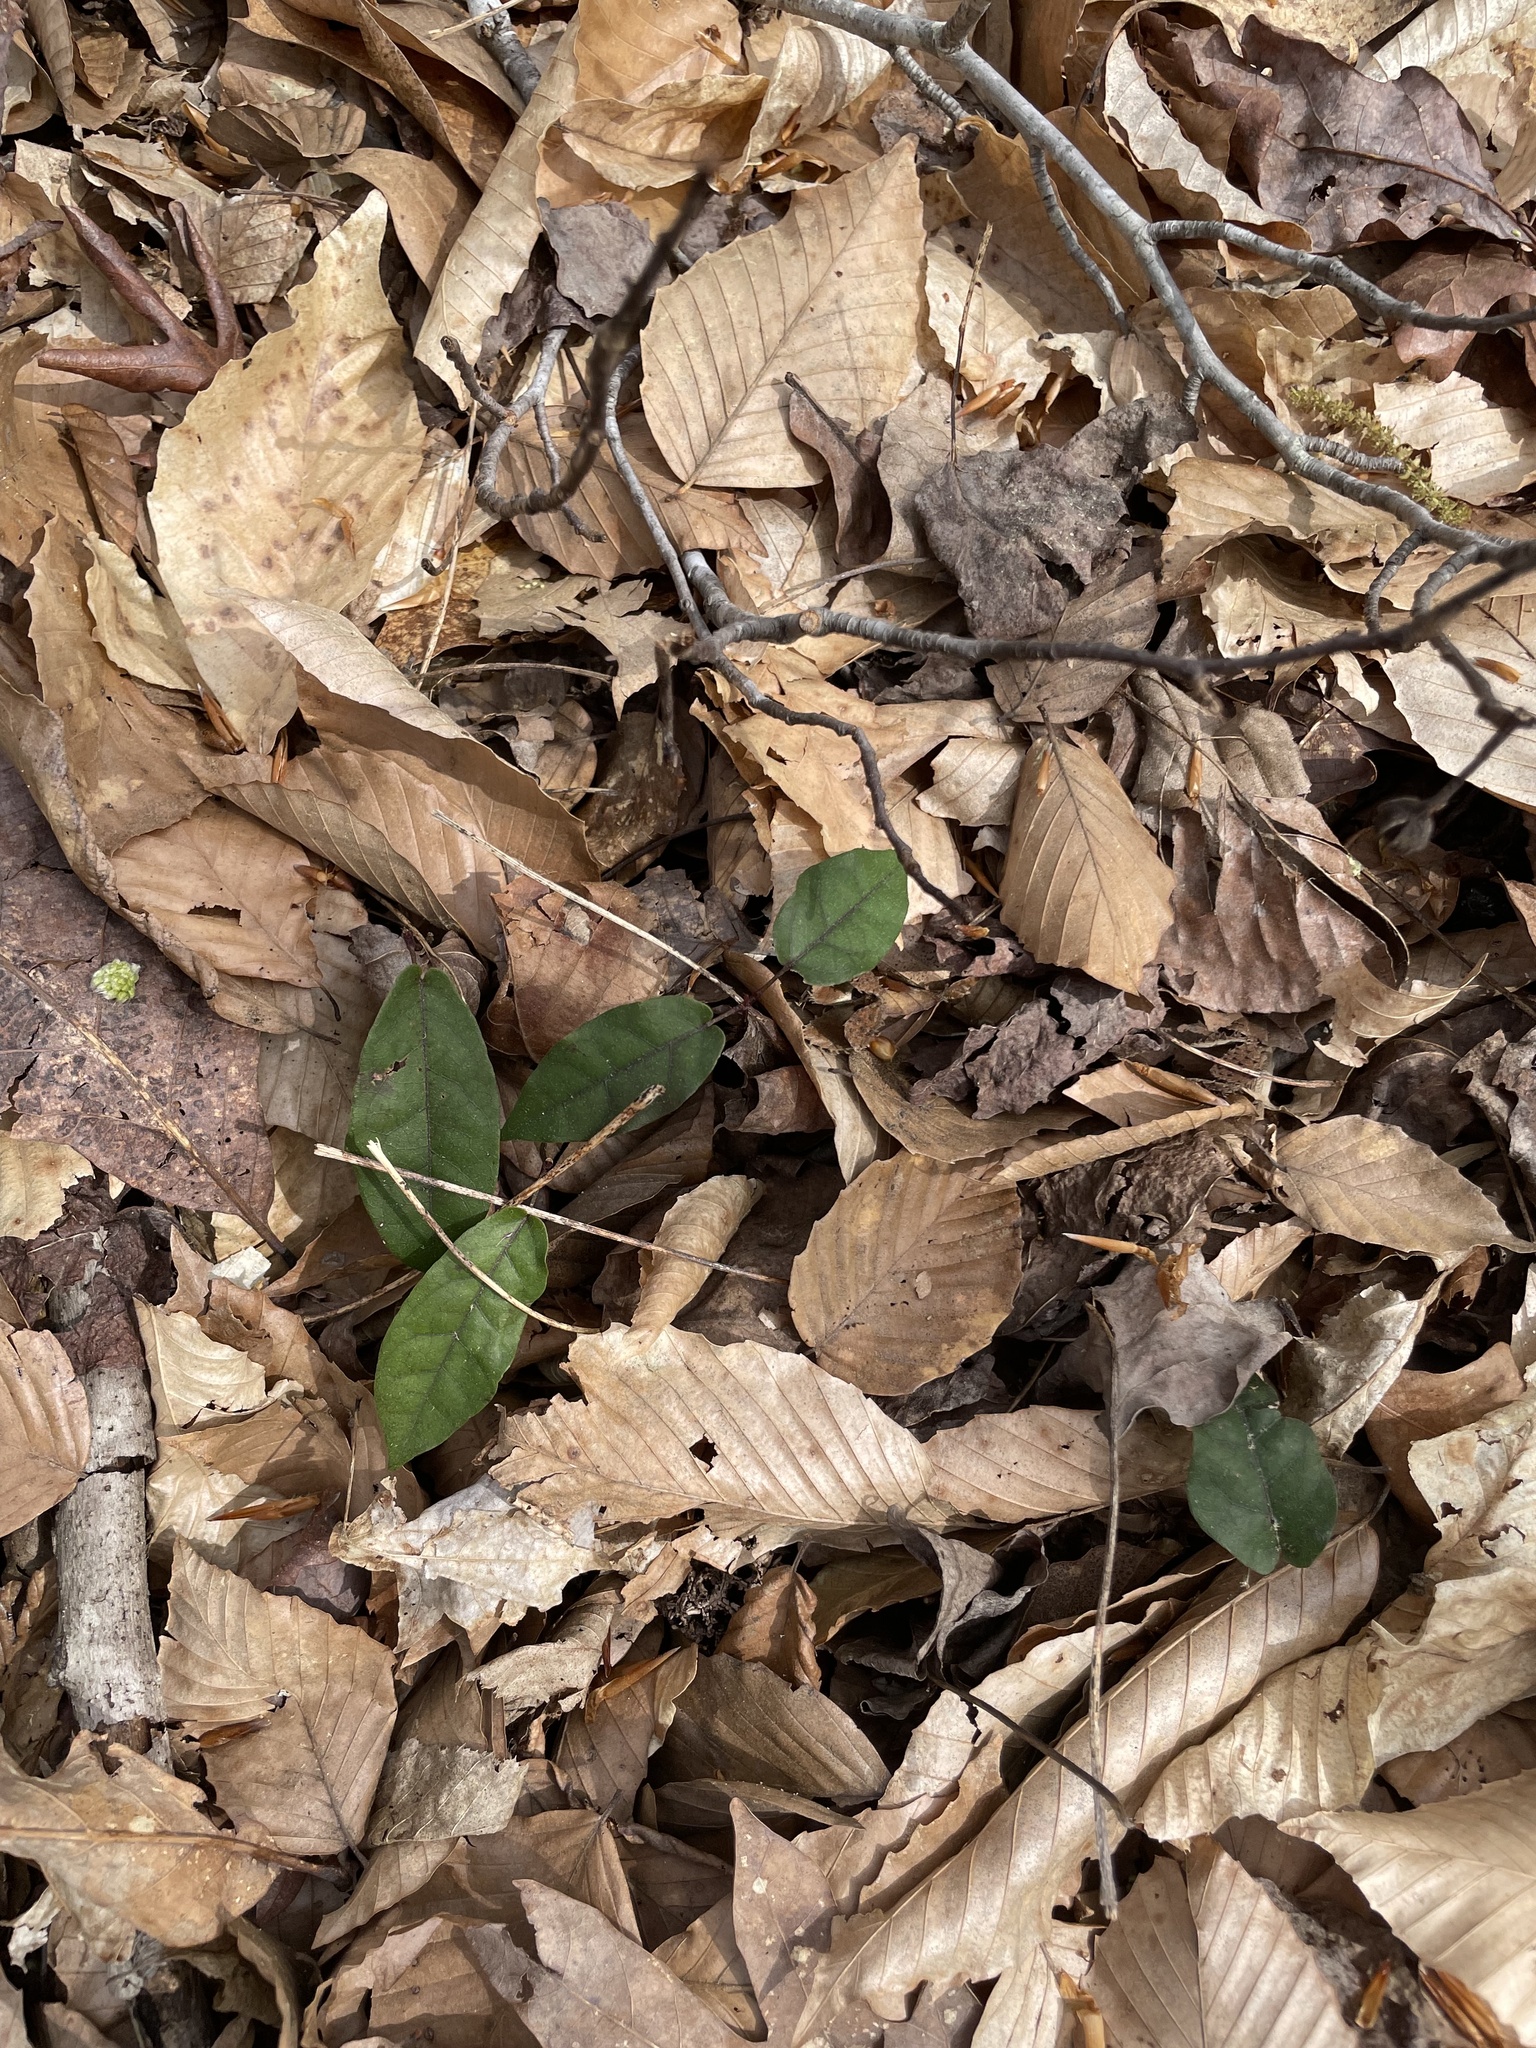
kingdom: Plantae
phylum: Tracheophyta
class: Magnoliopsida
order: Lamiales
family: Bignoniaceae
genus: Bignonia
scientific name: Bignonia capreolata
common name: Crossvine
